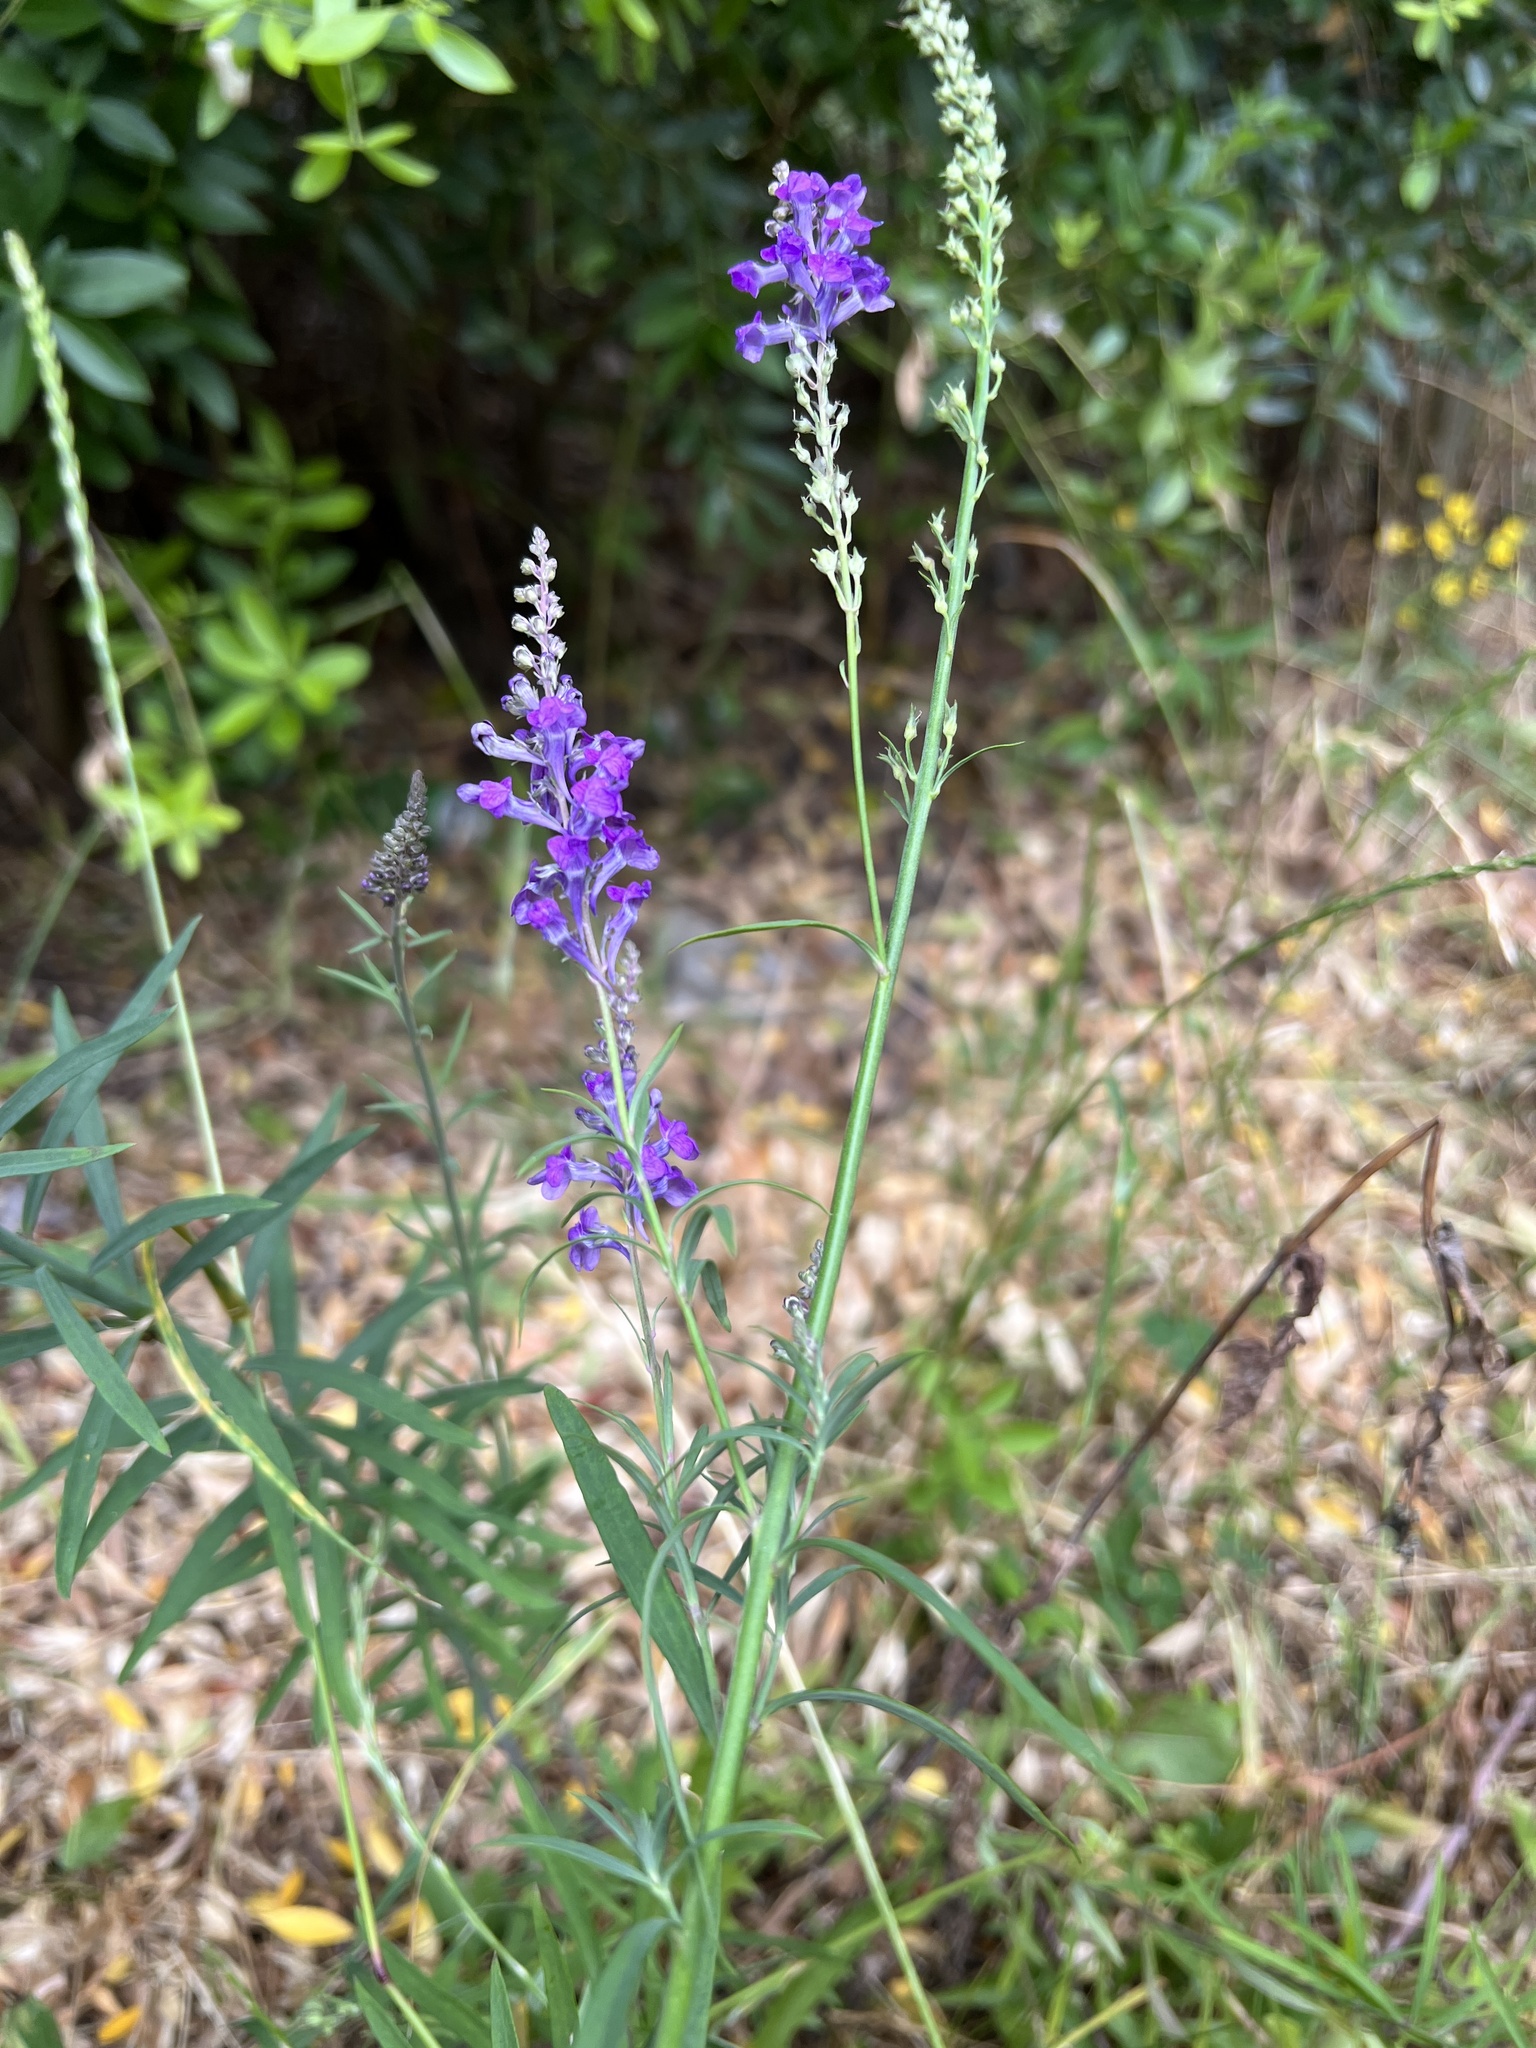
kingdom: Plantae
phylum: Tracheophyta
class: Magnoliopsida
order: Lamiales
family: Plantaginaceae
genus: Linaria
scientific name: Linaria purpurea
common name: Purple toadflax
